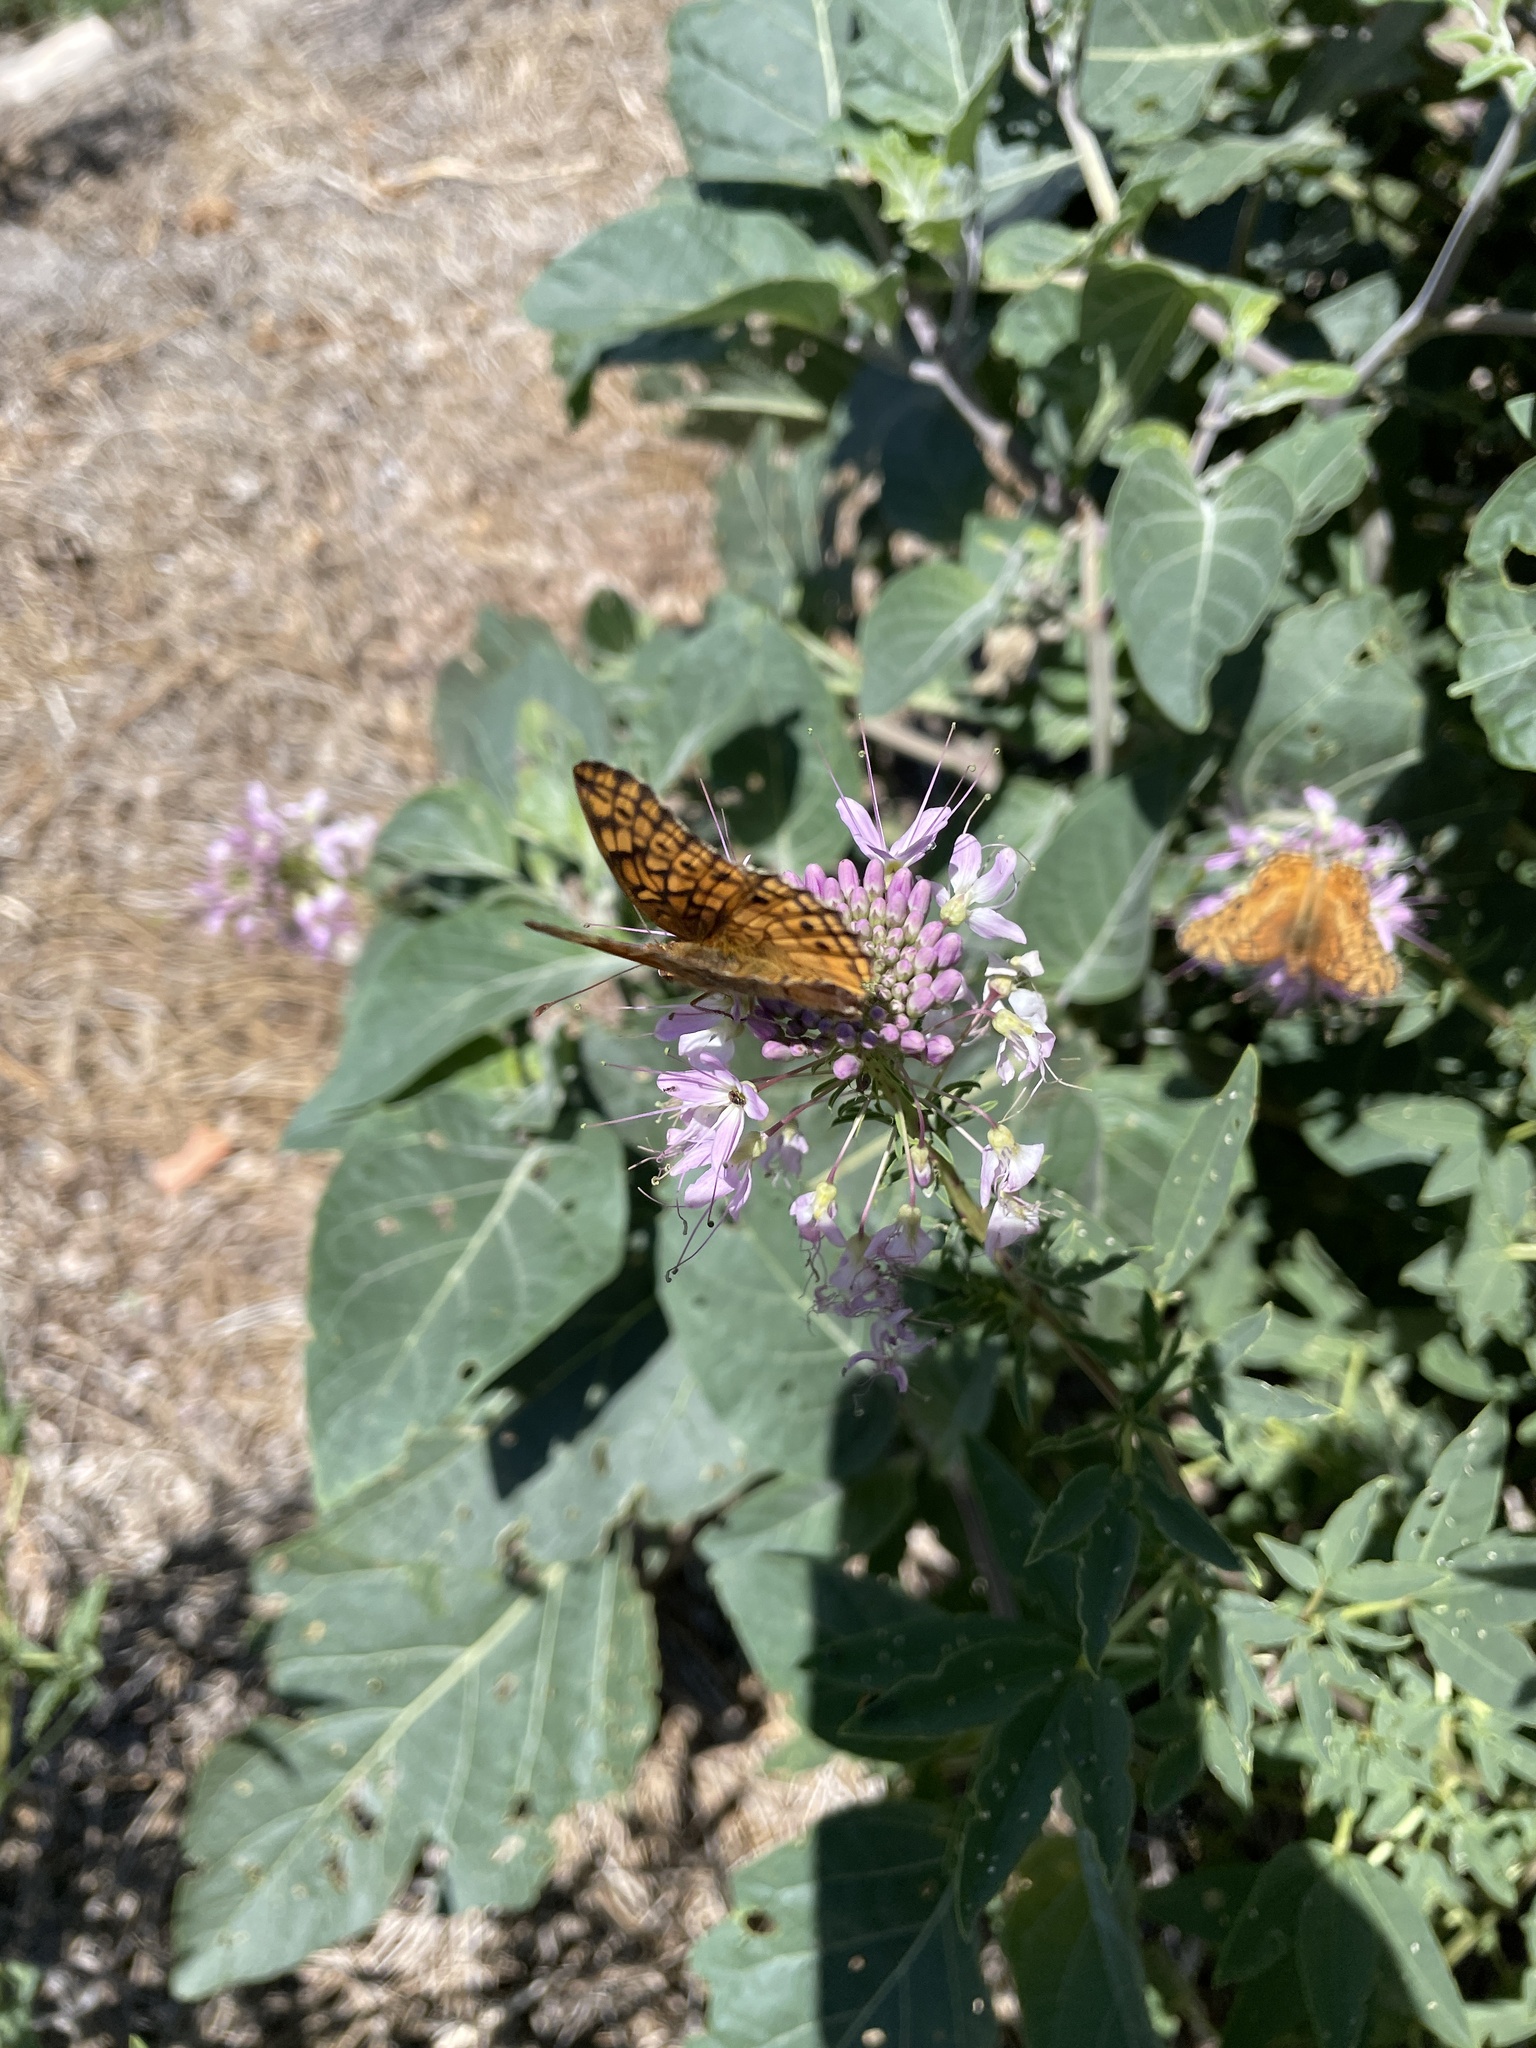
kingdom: Animalia
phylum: Arthropoda
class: Insecta
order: Lepidoptera
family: Nymphalidae
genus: Euptoieta
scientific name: Euptoieta claudia
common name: Variegated fritillary
